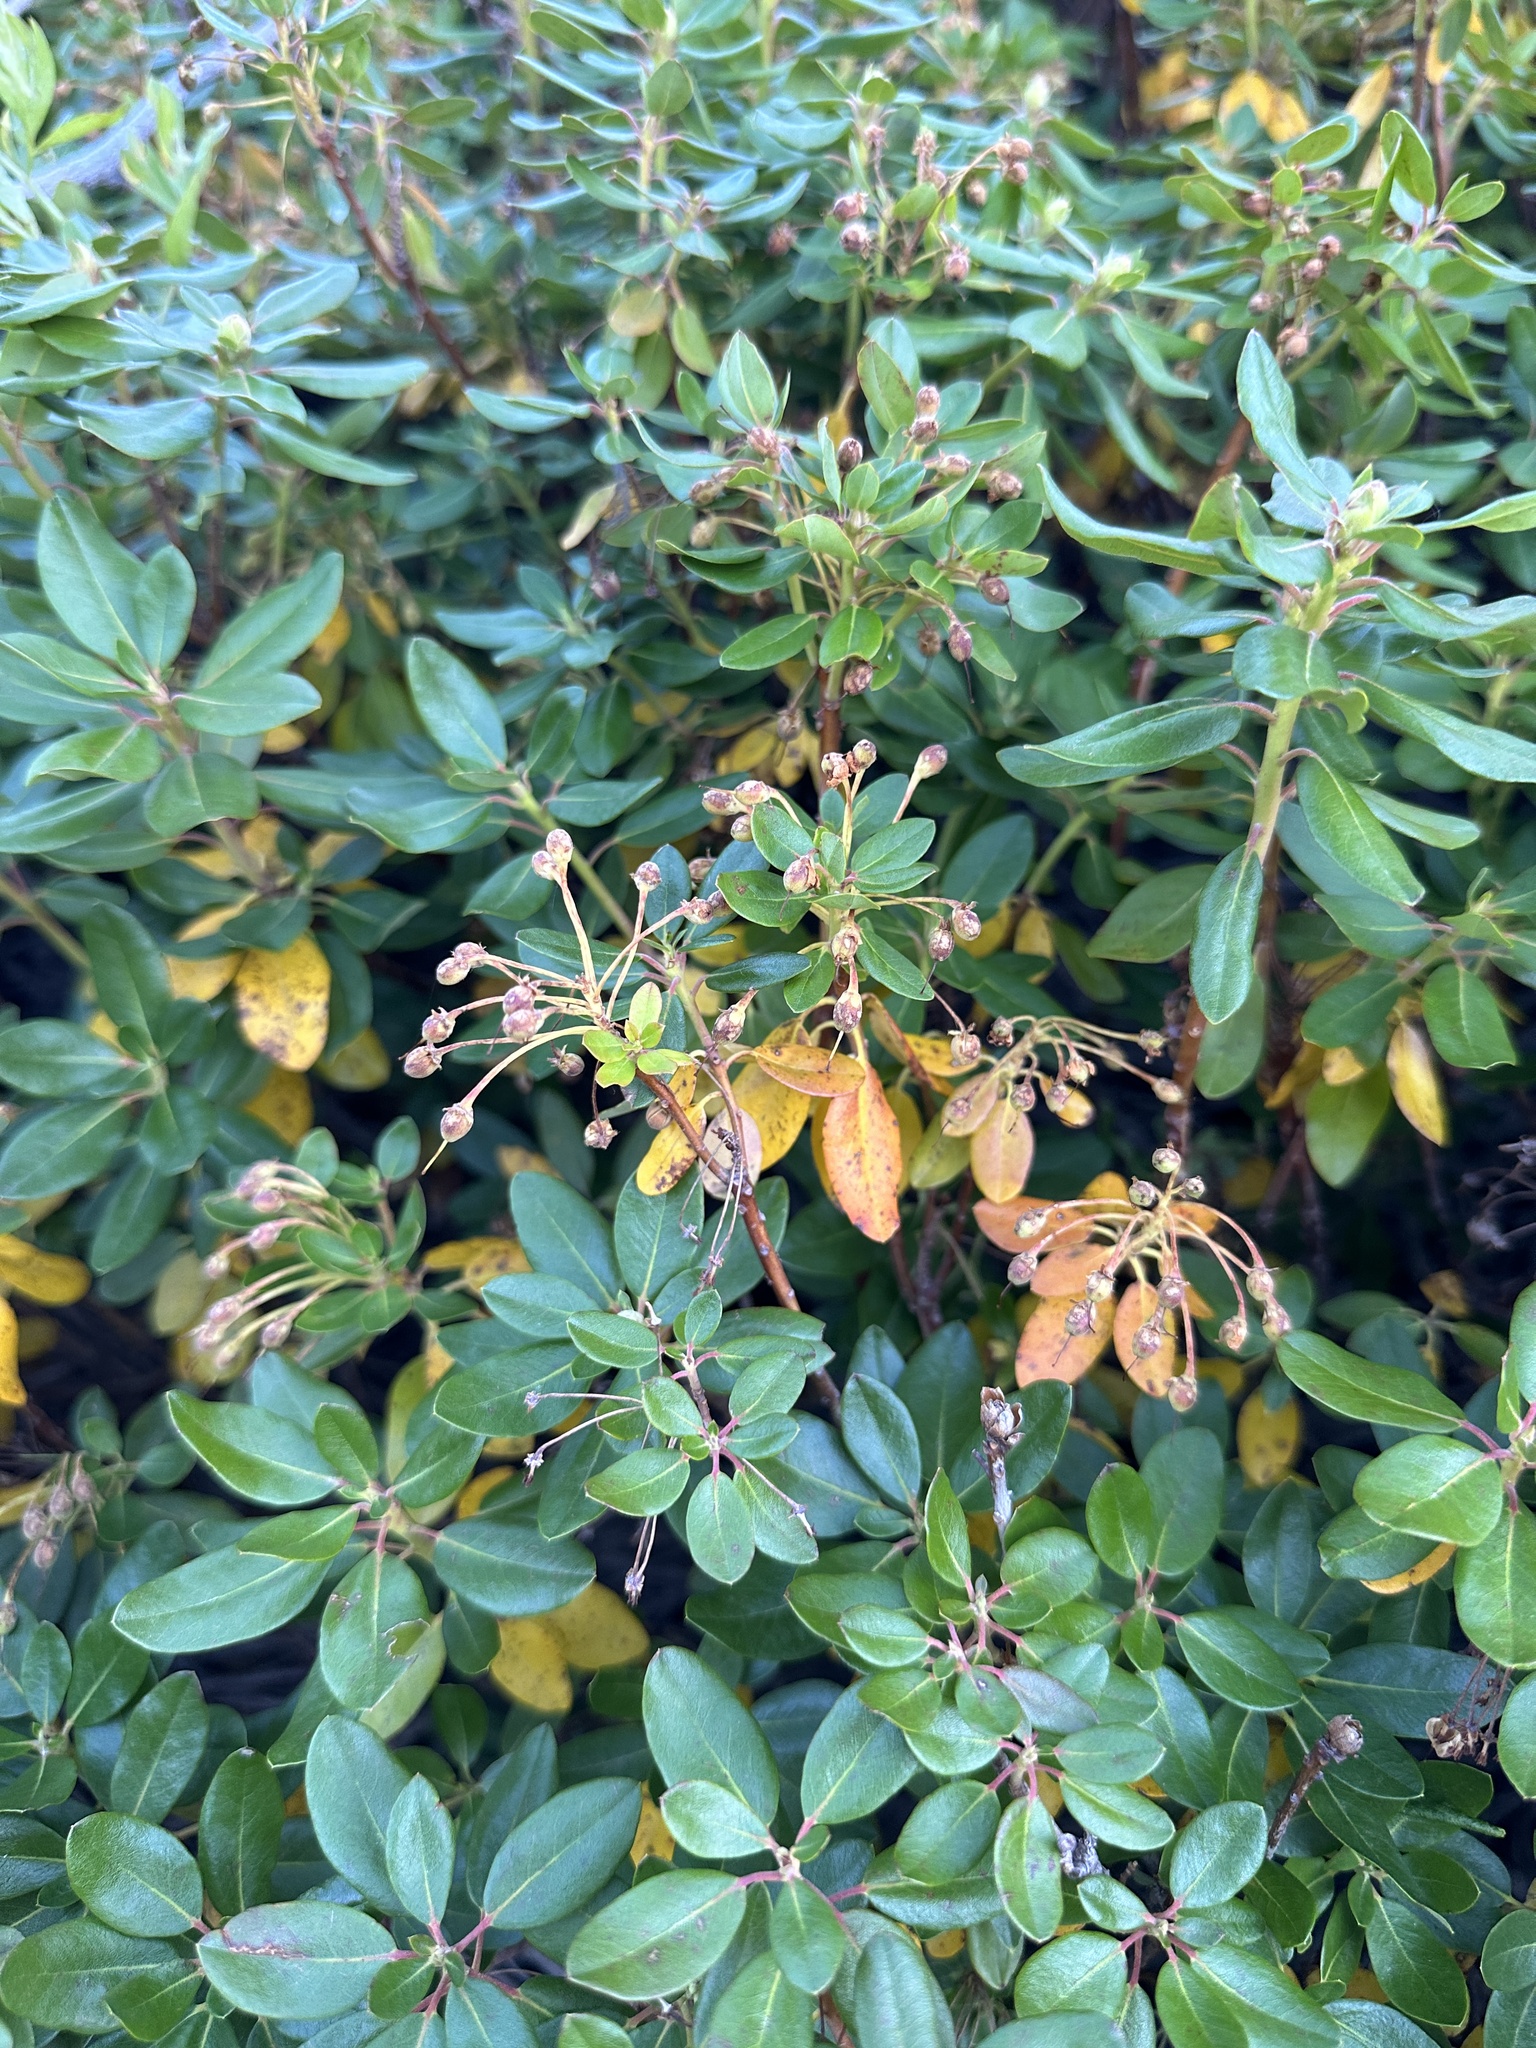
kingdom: Plantae
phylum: Tracheophyta
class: Magnoliopsida
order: Ericales
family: Ericaceae
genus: Rhododendron
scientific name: Rhododendron columbianum
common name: Western labrador tea
